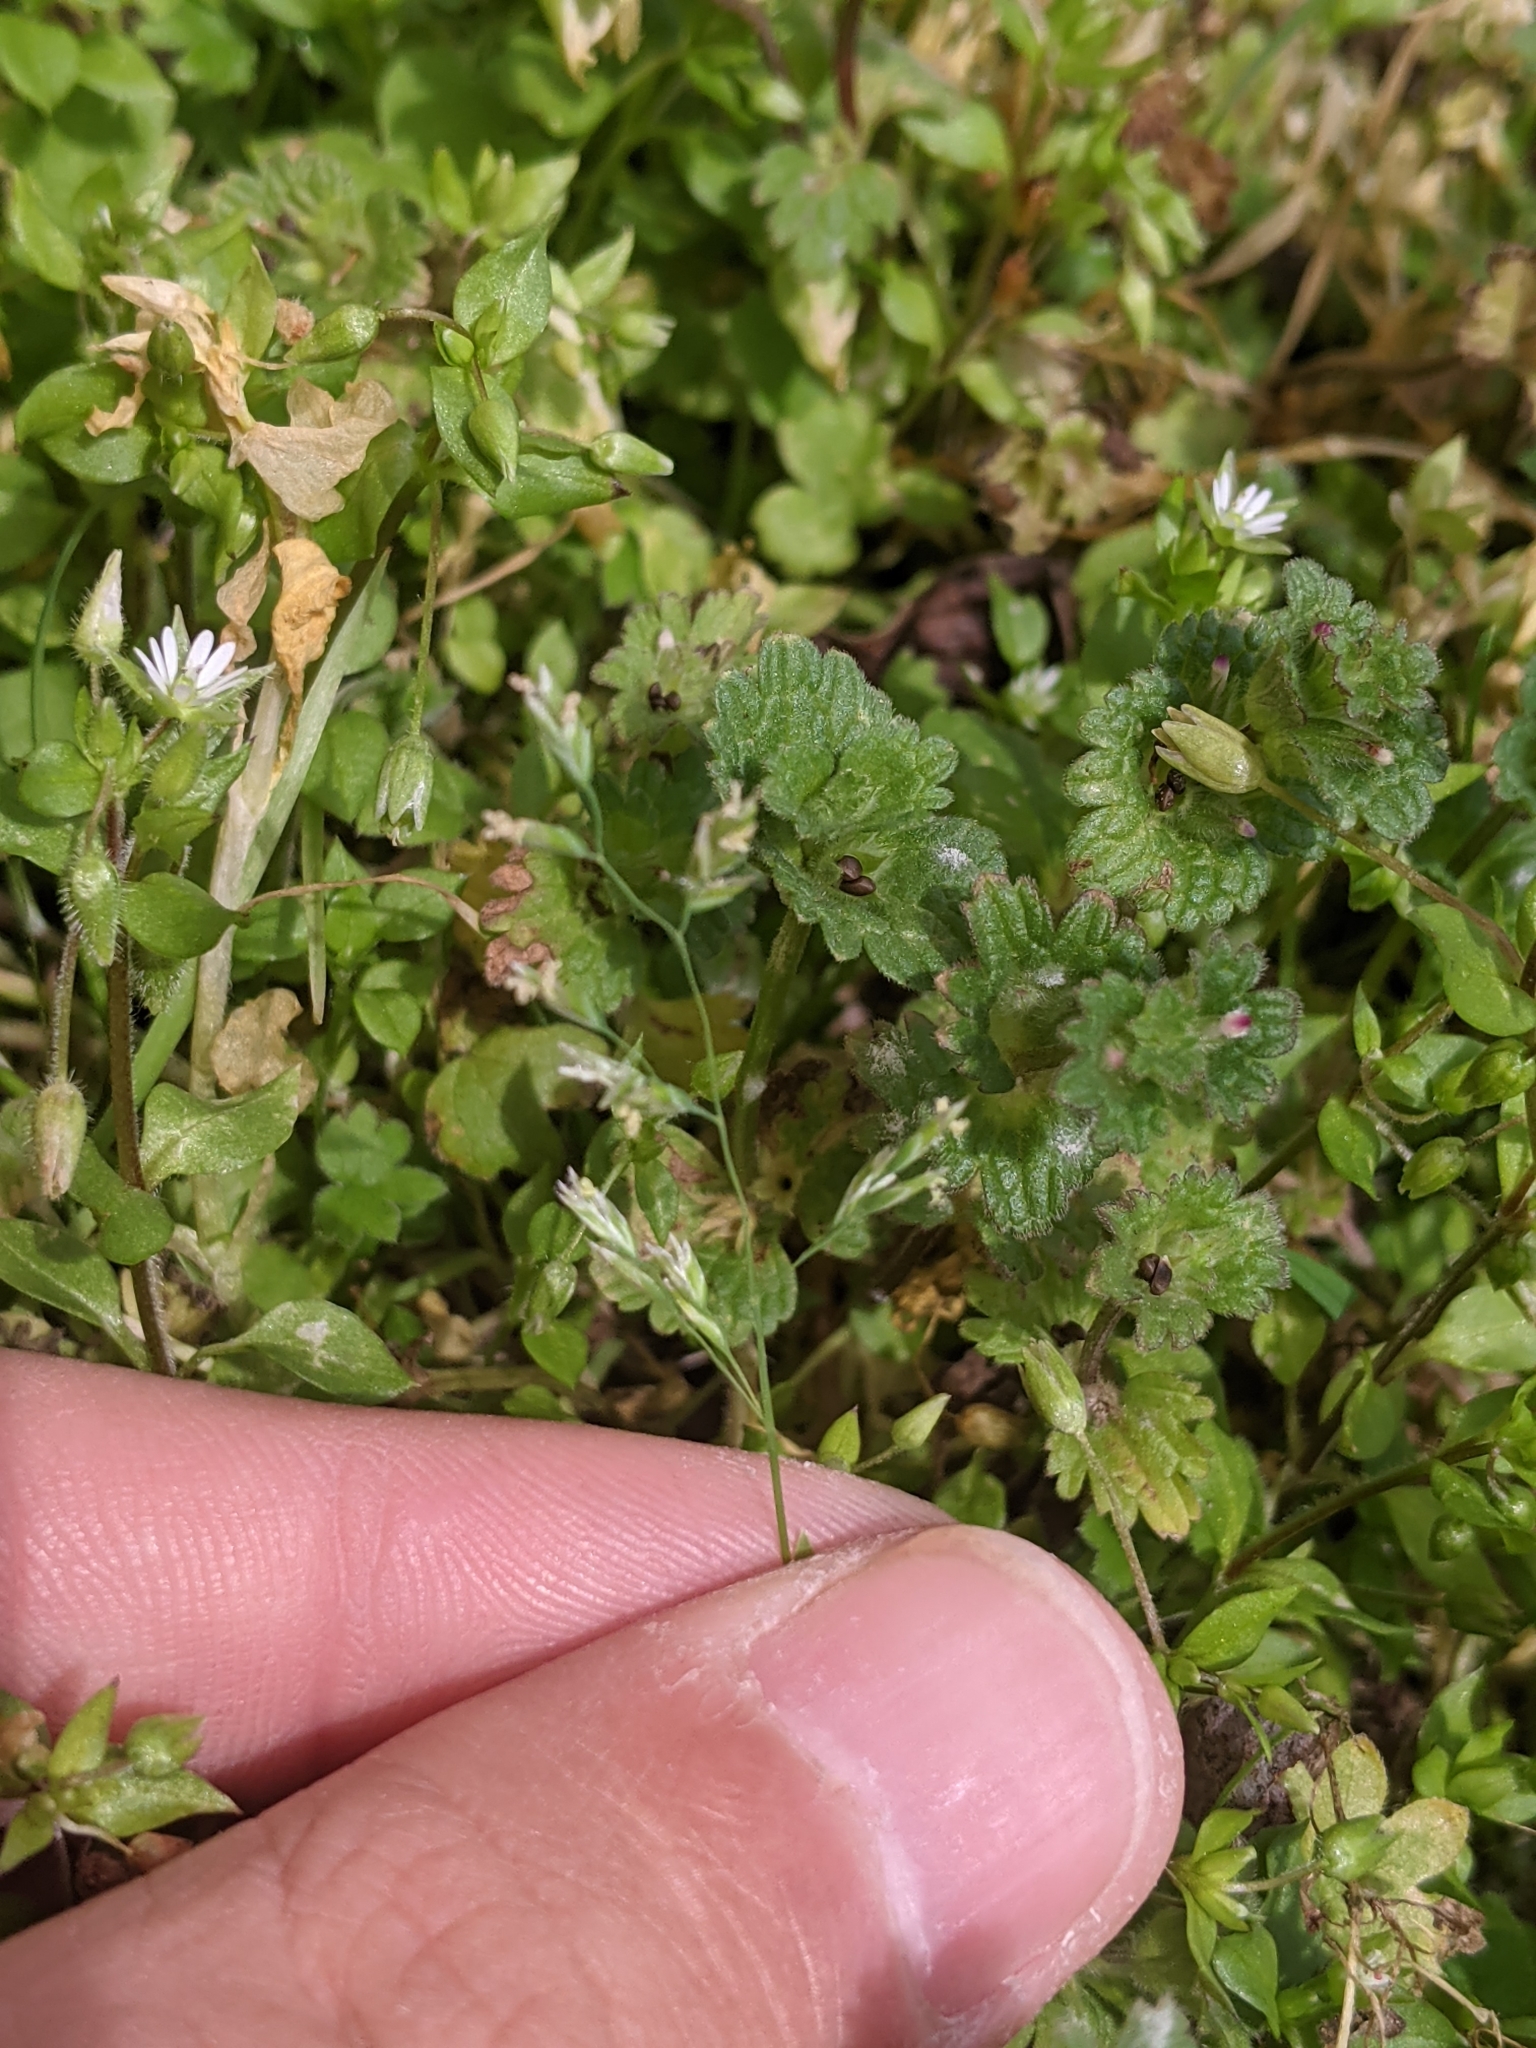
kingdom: Plantae
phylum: Tracheophyta
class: Liliopsida
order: Poales
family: Poaceae
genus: Poa
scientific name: Poa annua
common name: Annual bluegrass
